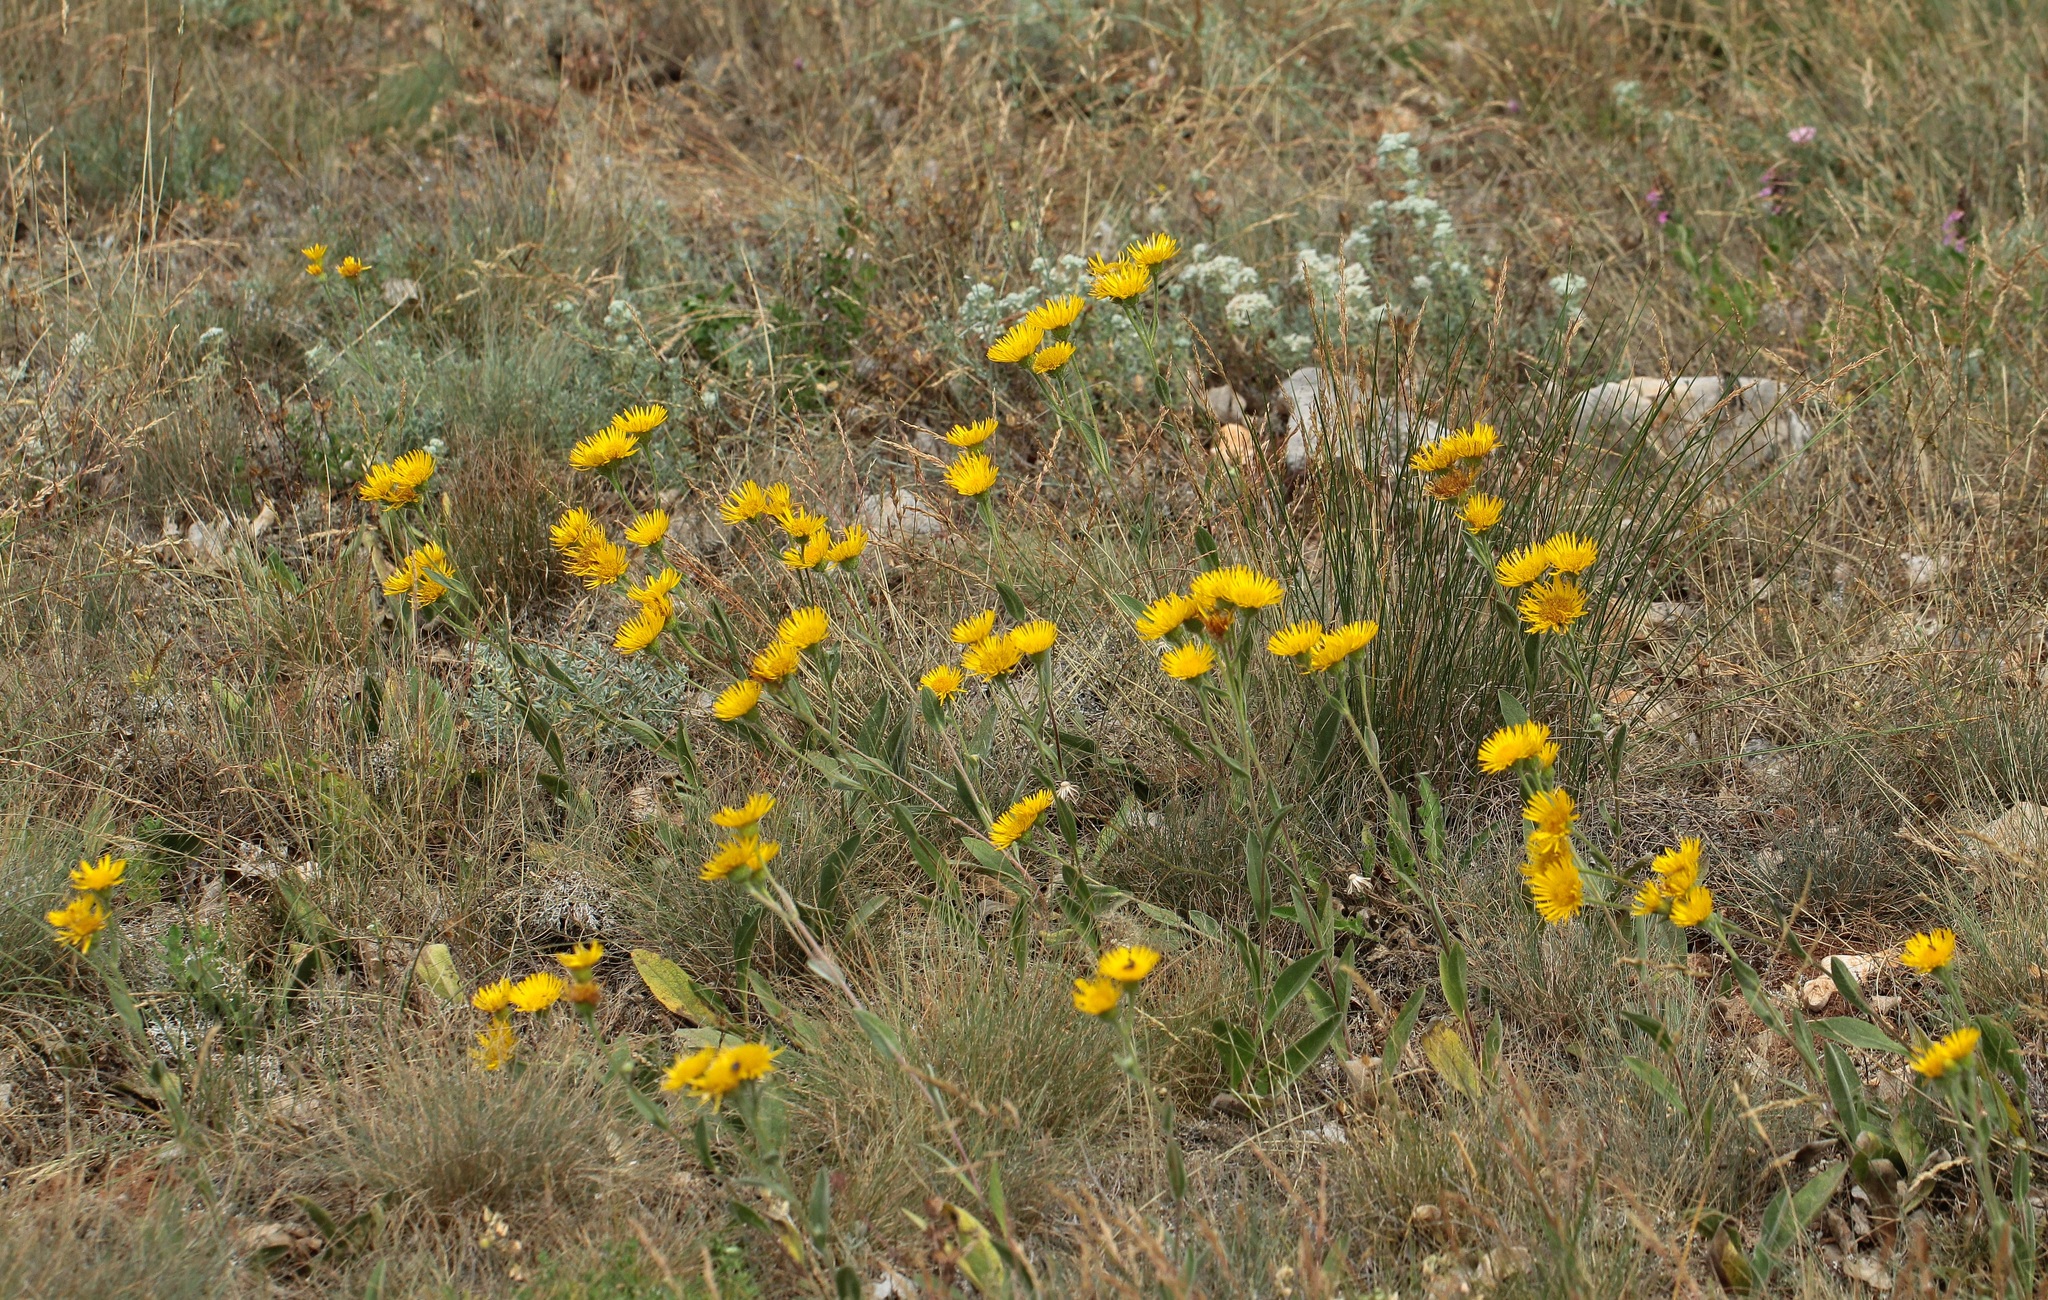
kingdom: Plantae
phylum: Tracheophyta
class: Magnoliopsida
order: Asterales
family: Asteraceae
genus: Pentanema
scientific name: Pentanema oculus-christi
